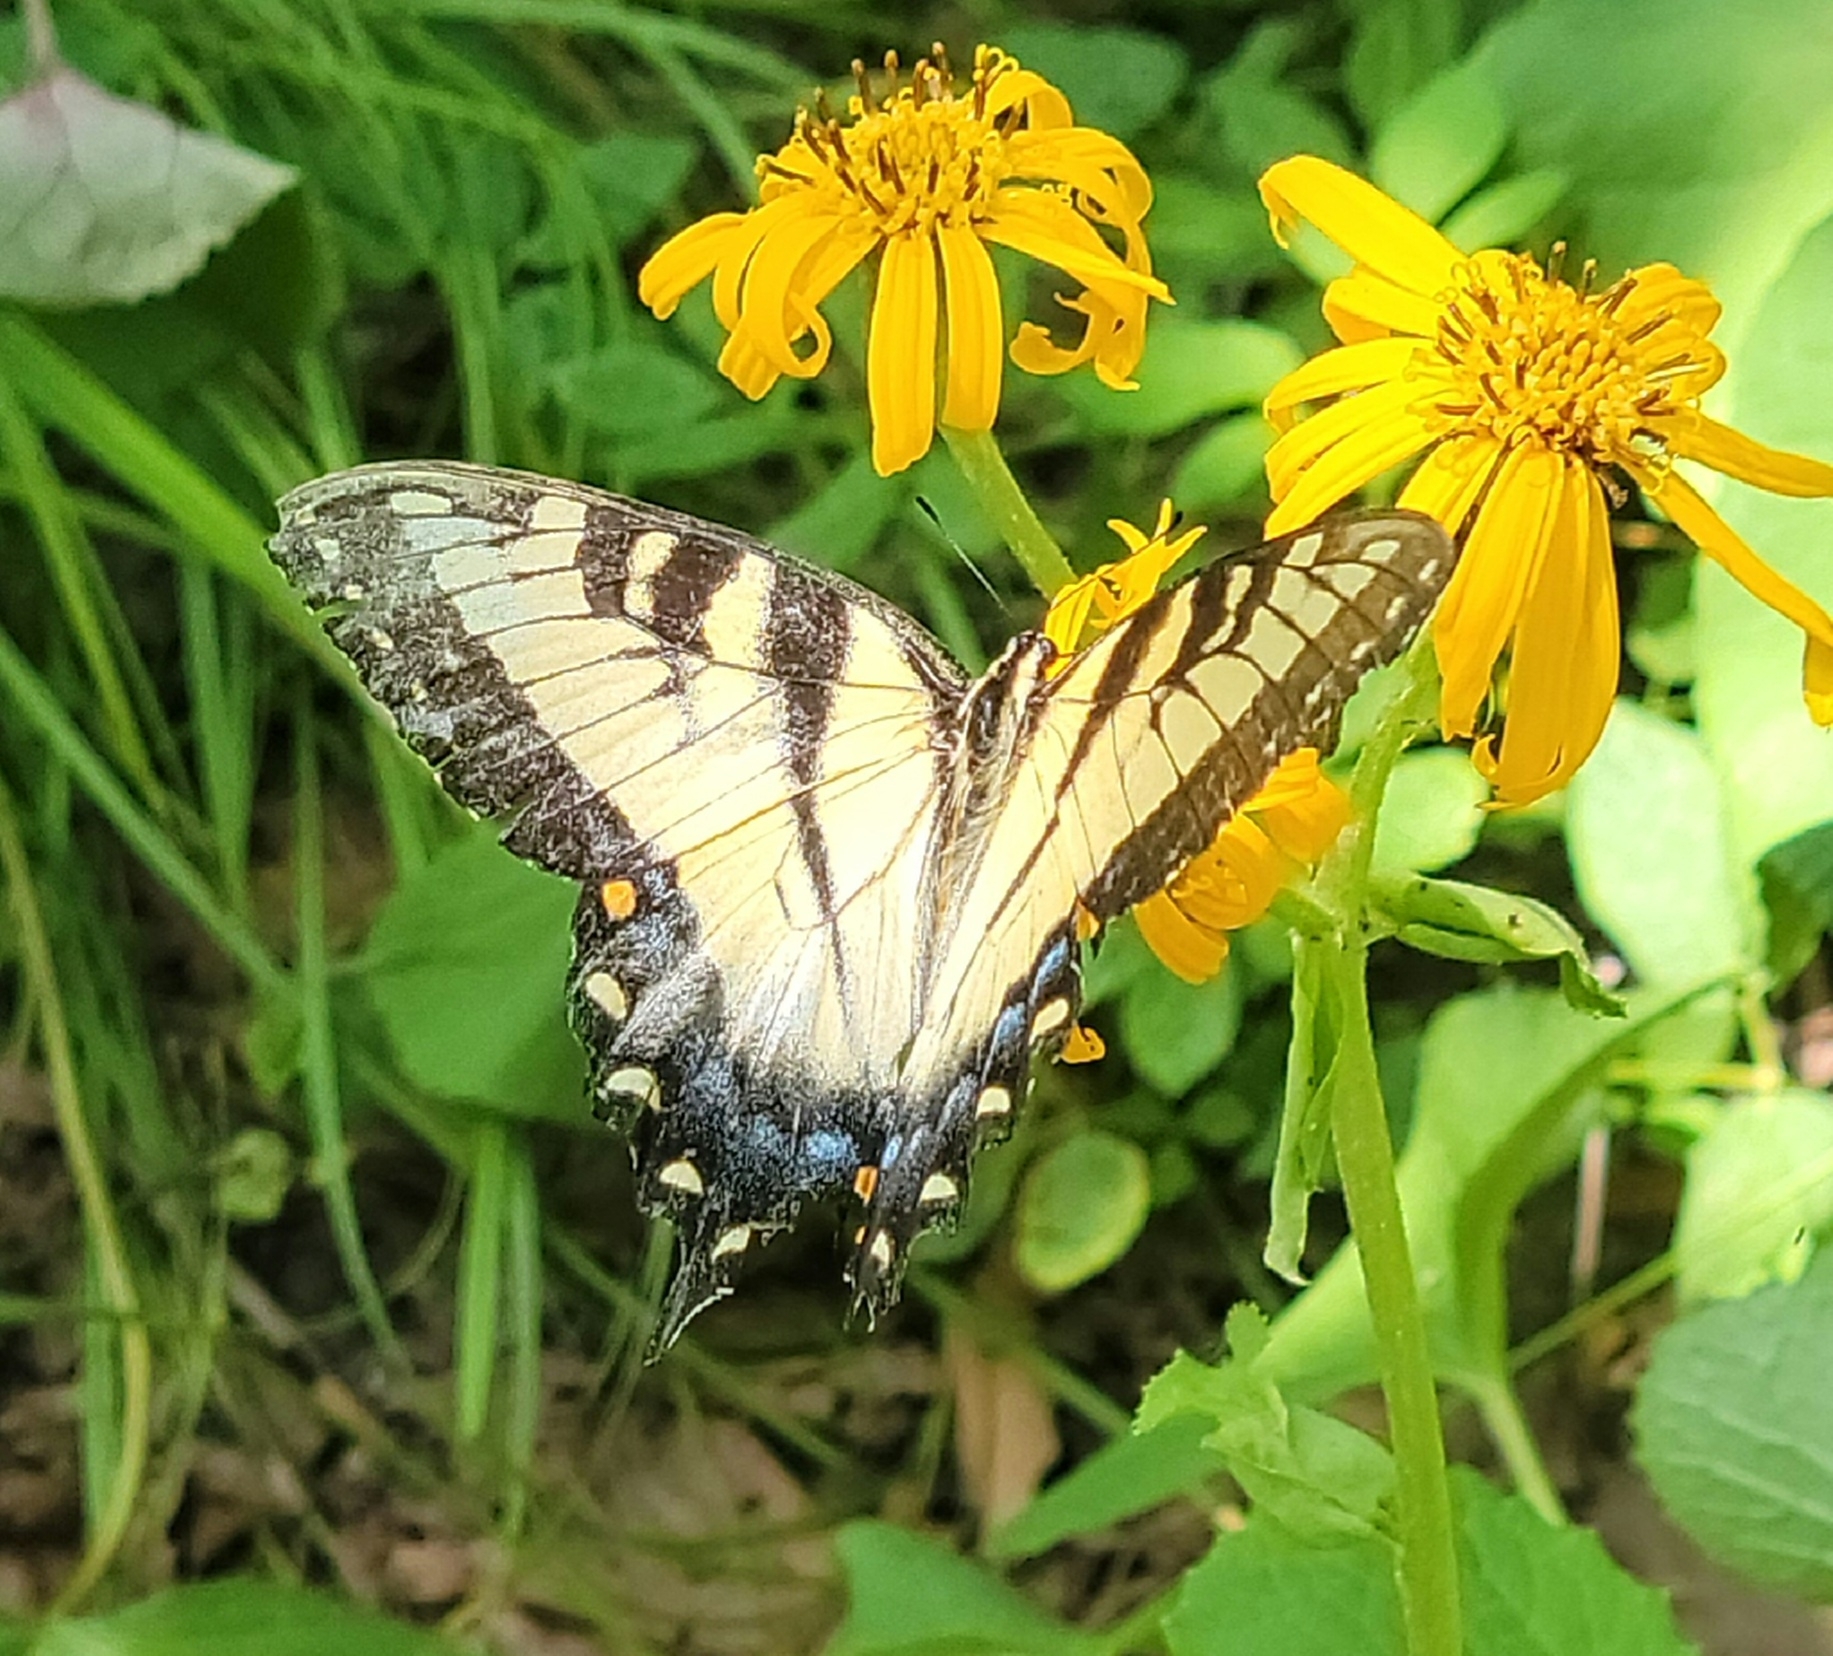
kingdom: Animalia
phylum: Arthropoda
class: Insecta
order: Lepidoptera
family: Papilionidae
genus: Papilio
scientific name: Papilio glaucus
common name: Tiger swallowtail
